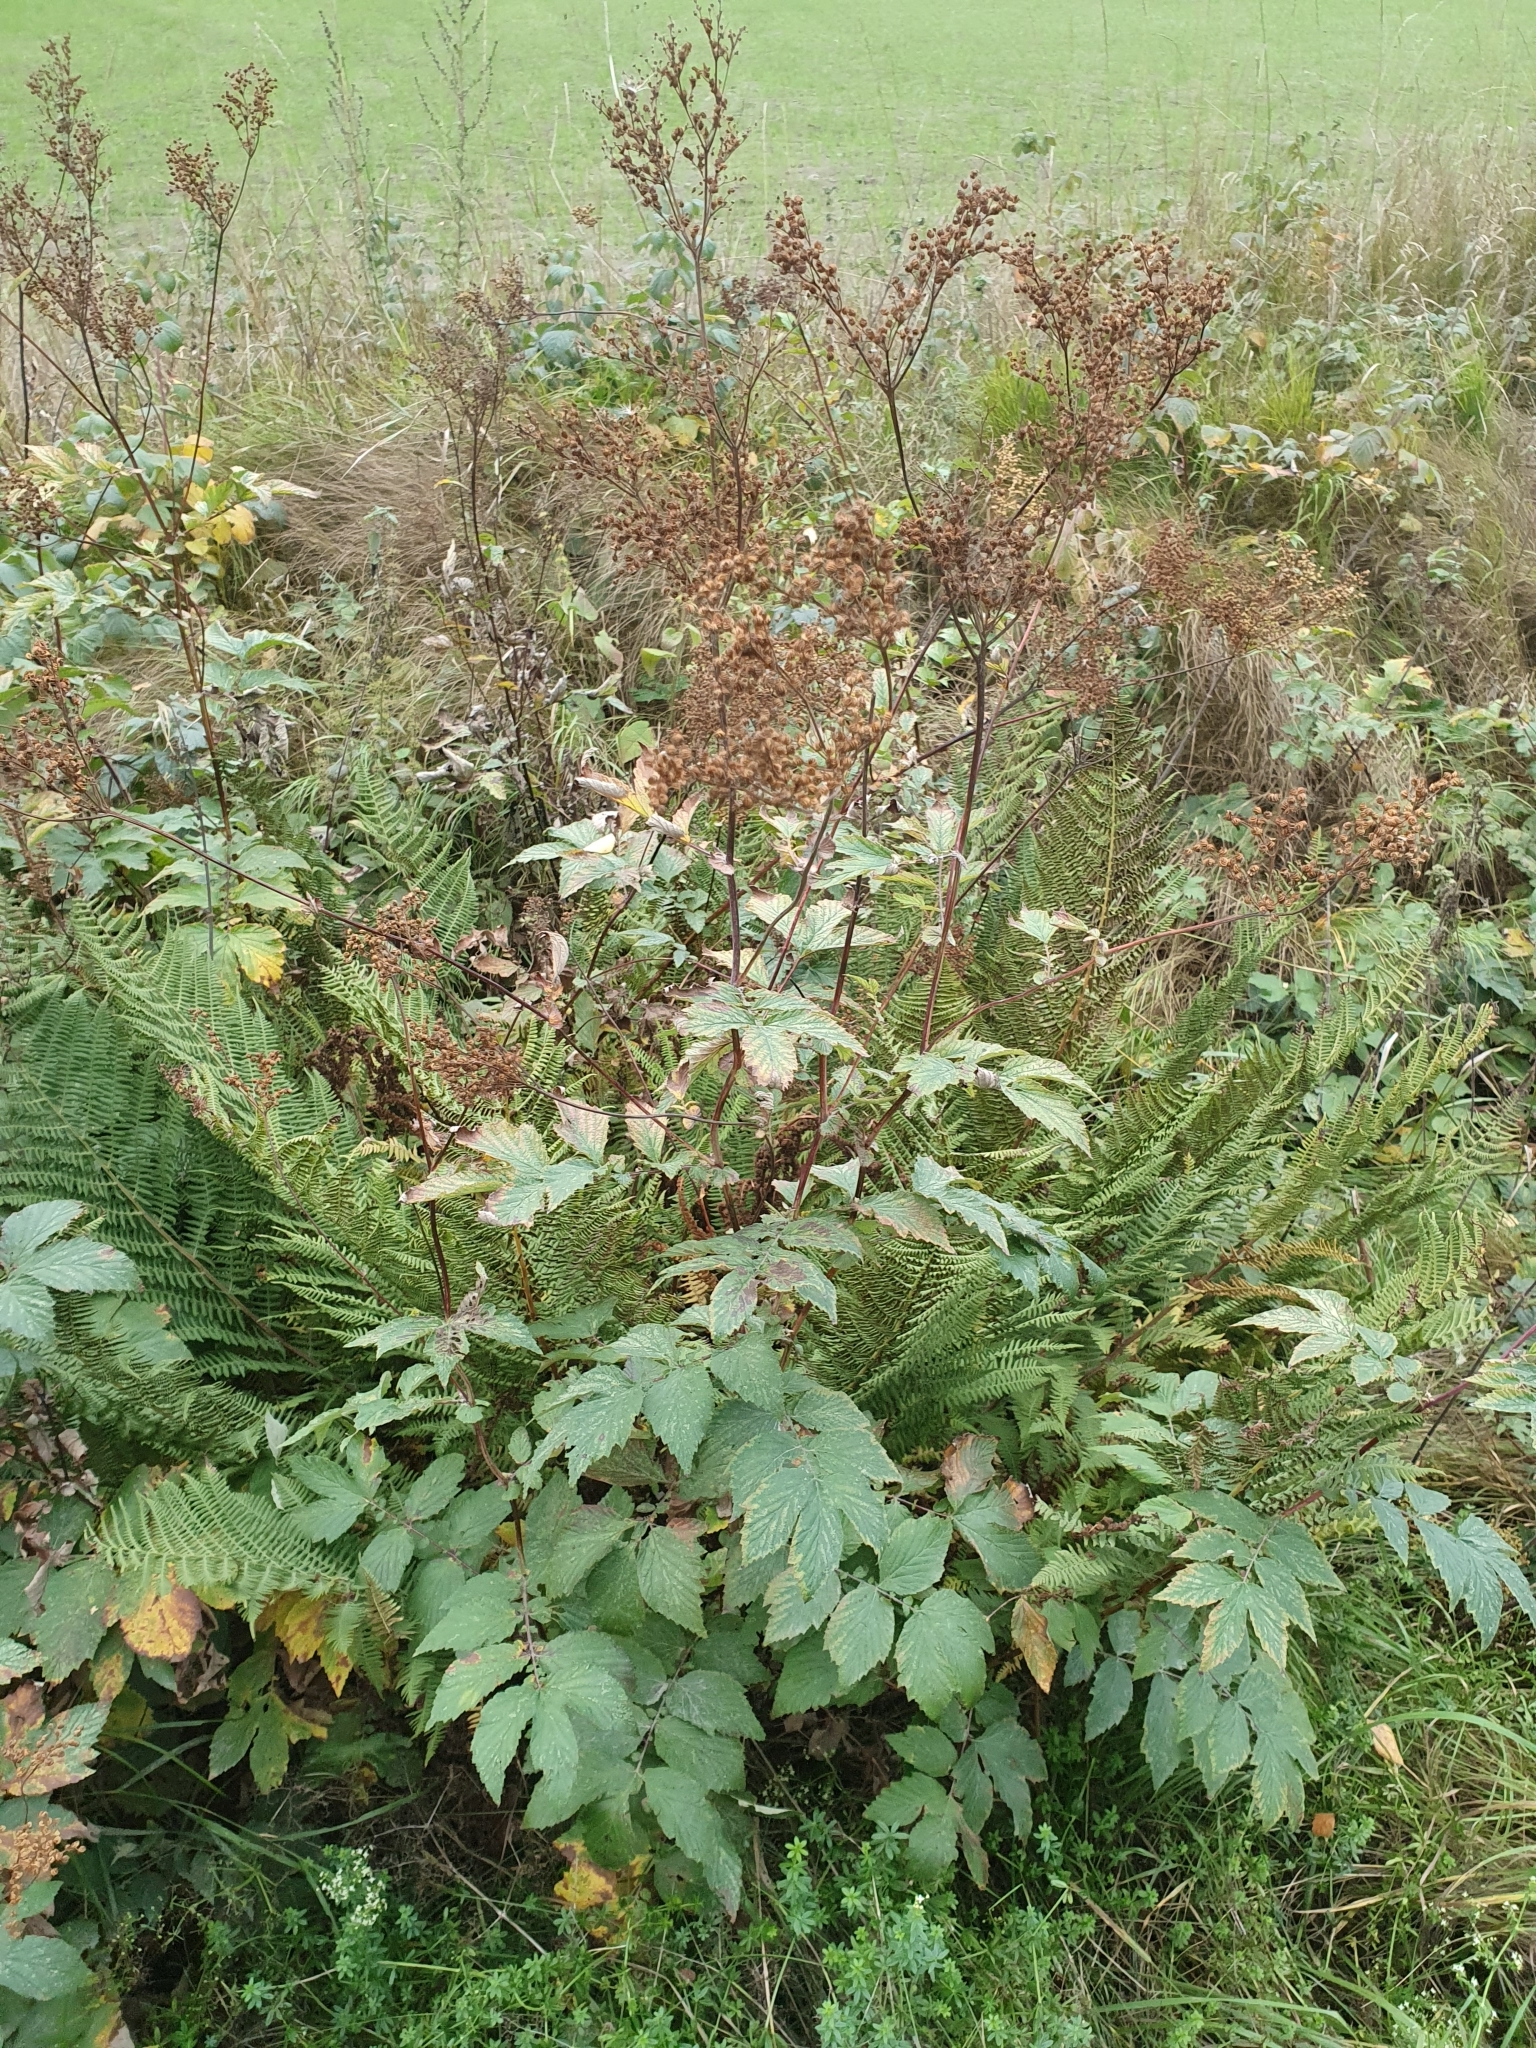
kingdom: Plantae
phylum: Tracheophyta
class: Magnoliopsida
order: Rosales
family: Rosaceae
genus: Filipendula
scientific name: Filipendula ulmaria
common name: Meadowsweet
